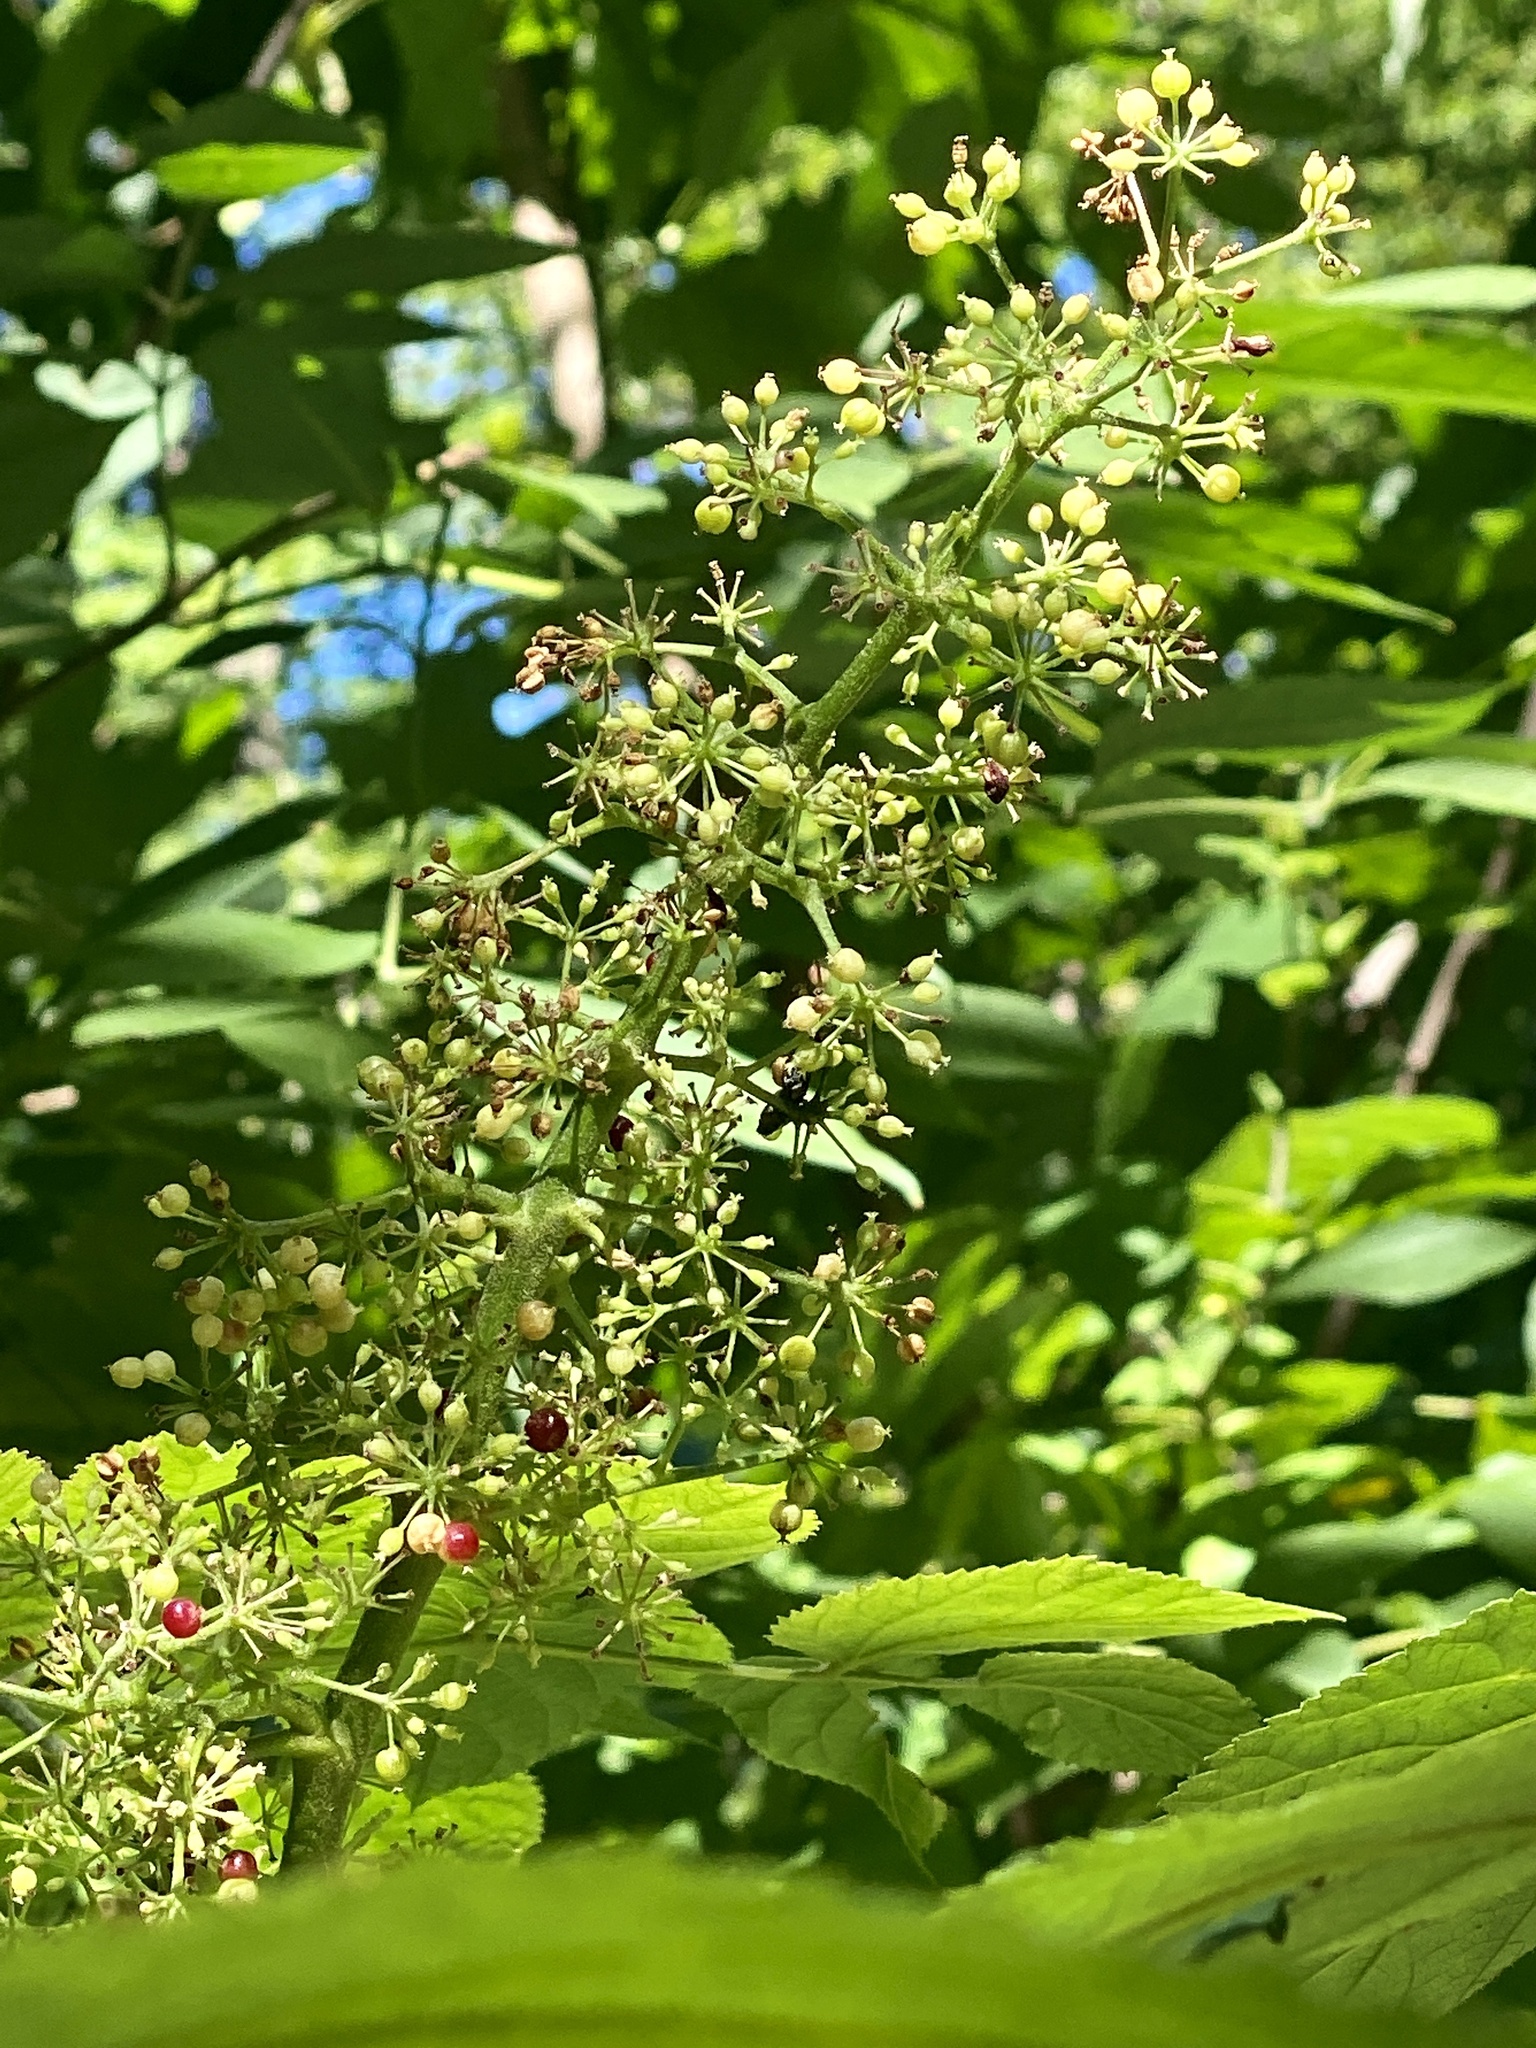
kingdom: Plantae
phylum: Tracheophyta
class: Magnoliopsida
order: Apiales
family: Araliaceae
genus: Aralia
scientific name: Aralia racemosa
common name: American-spikenard
